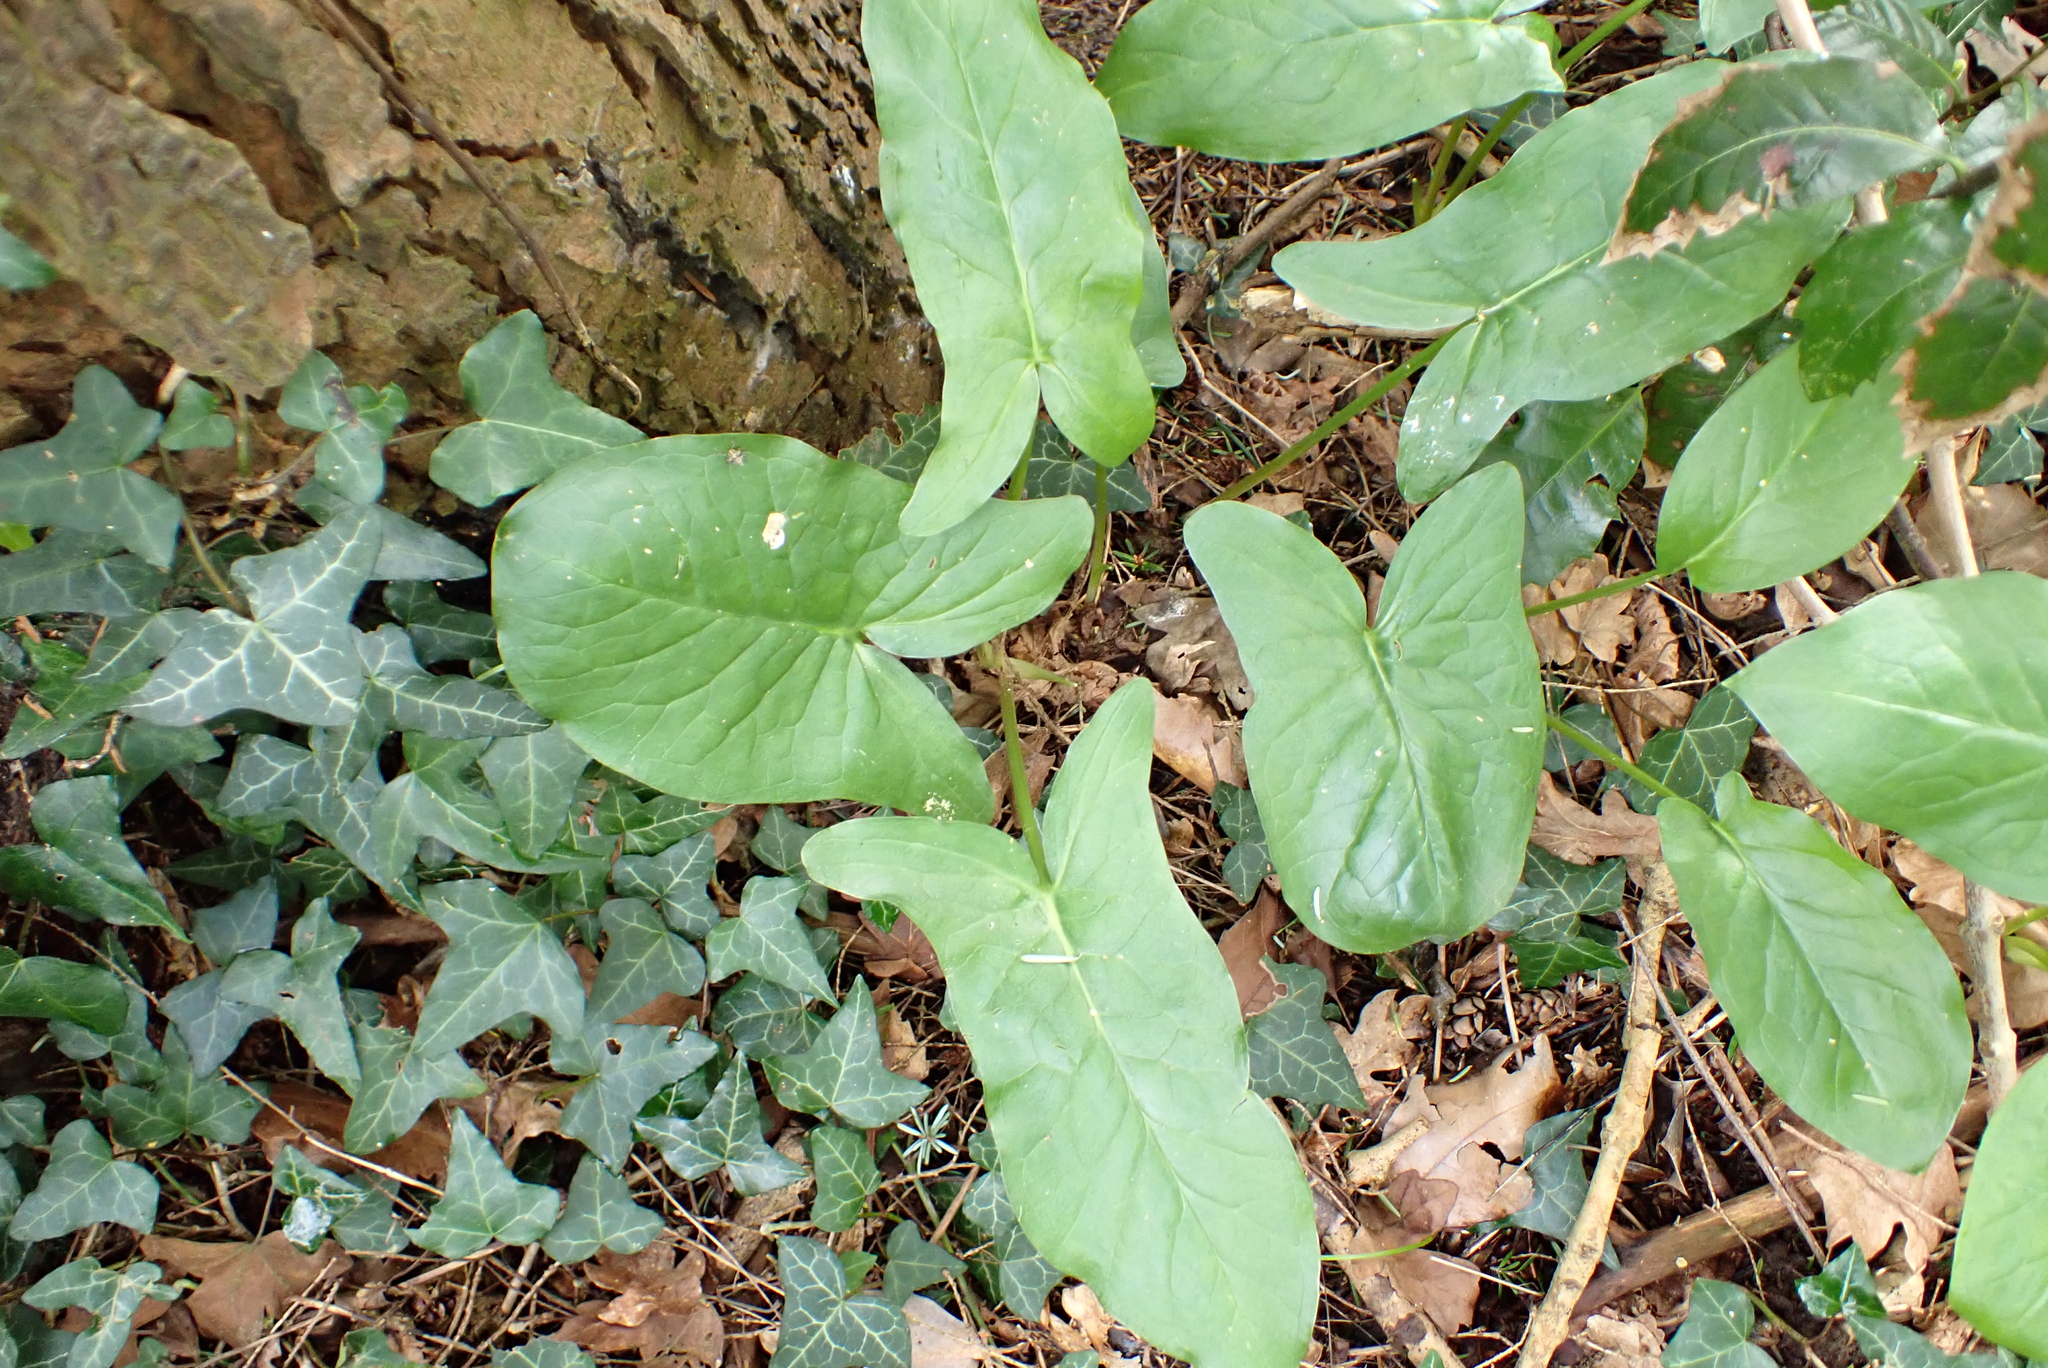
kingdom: Plantae
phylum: Tracheophyta
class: Liliopsida
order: Alismatales
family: Araceae
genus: Arum
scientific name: Arum maculatum
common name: Lords-and-ladies
